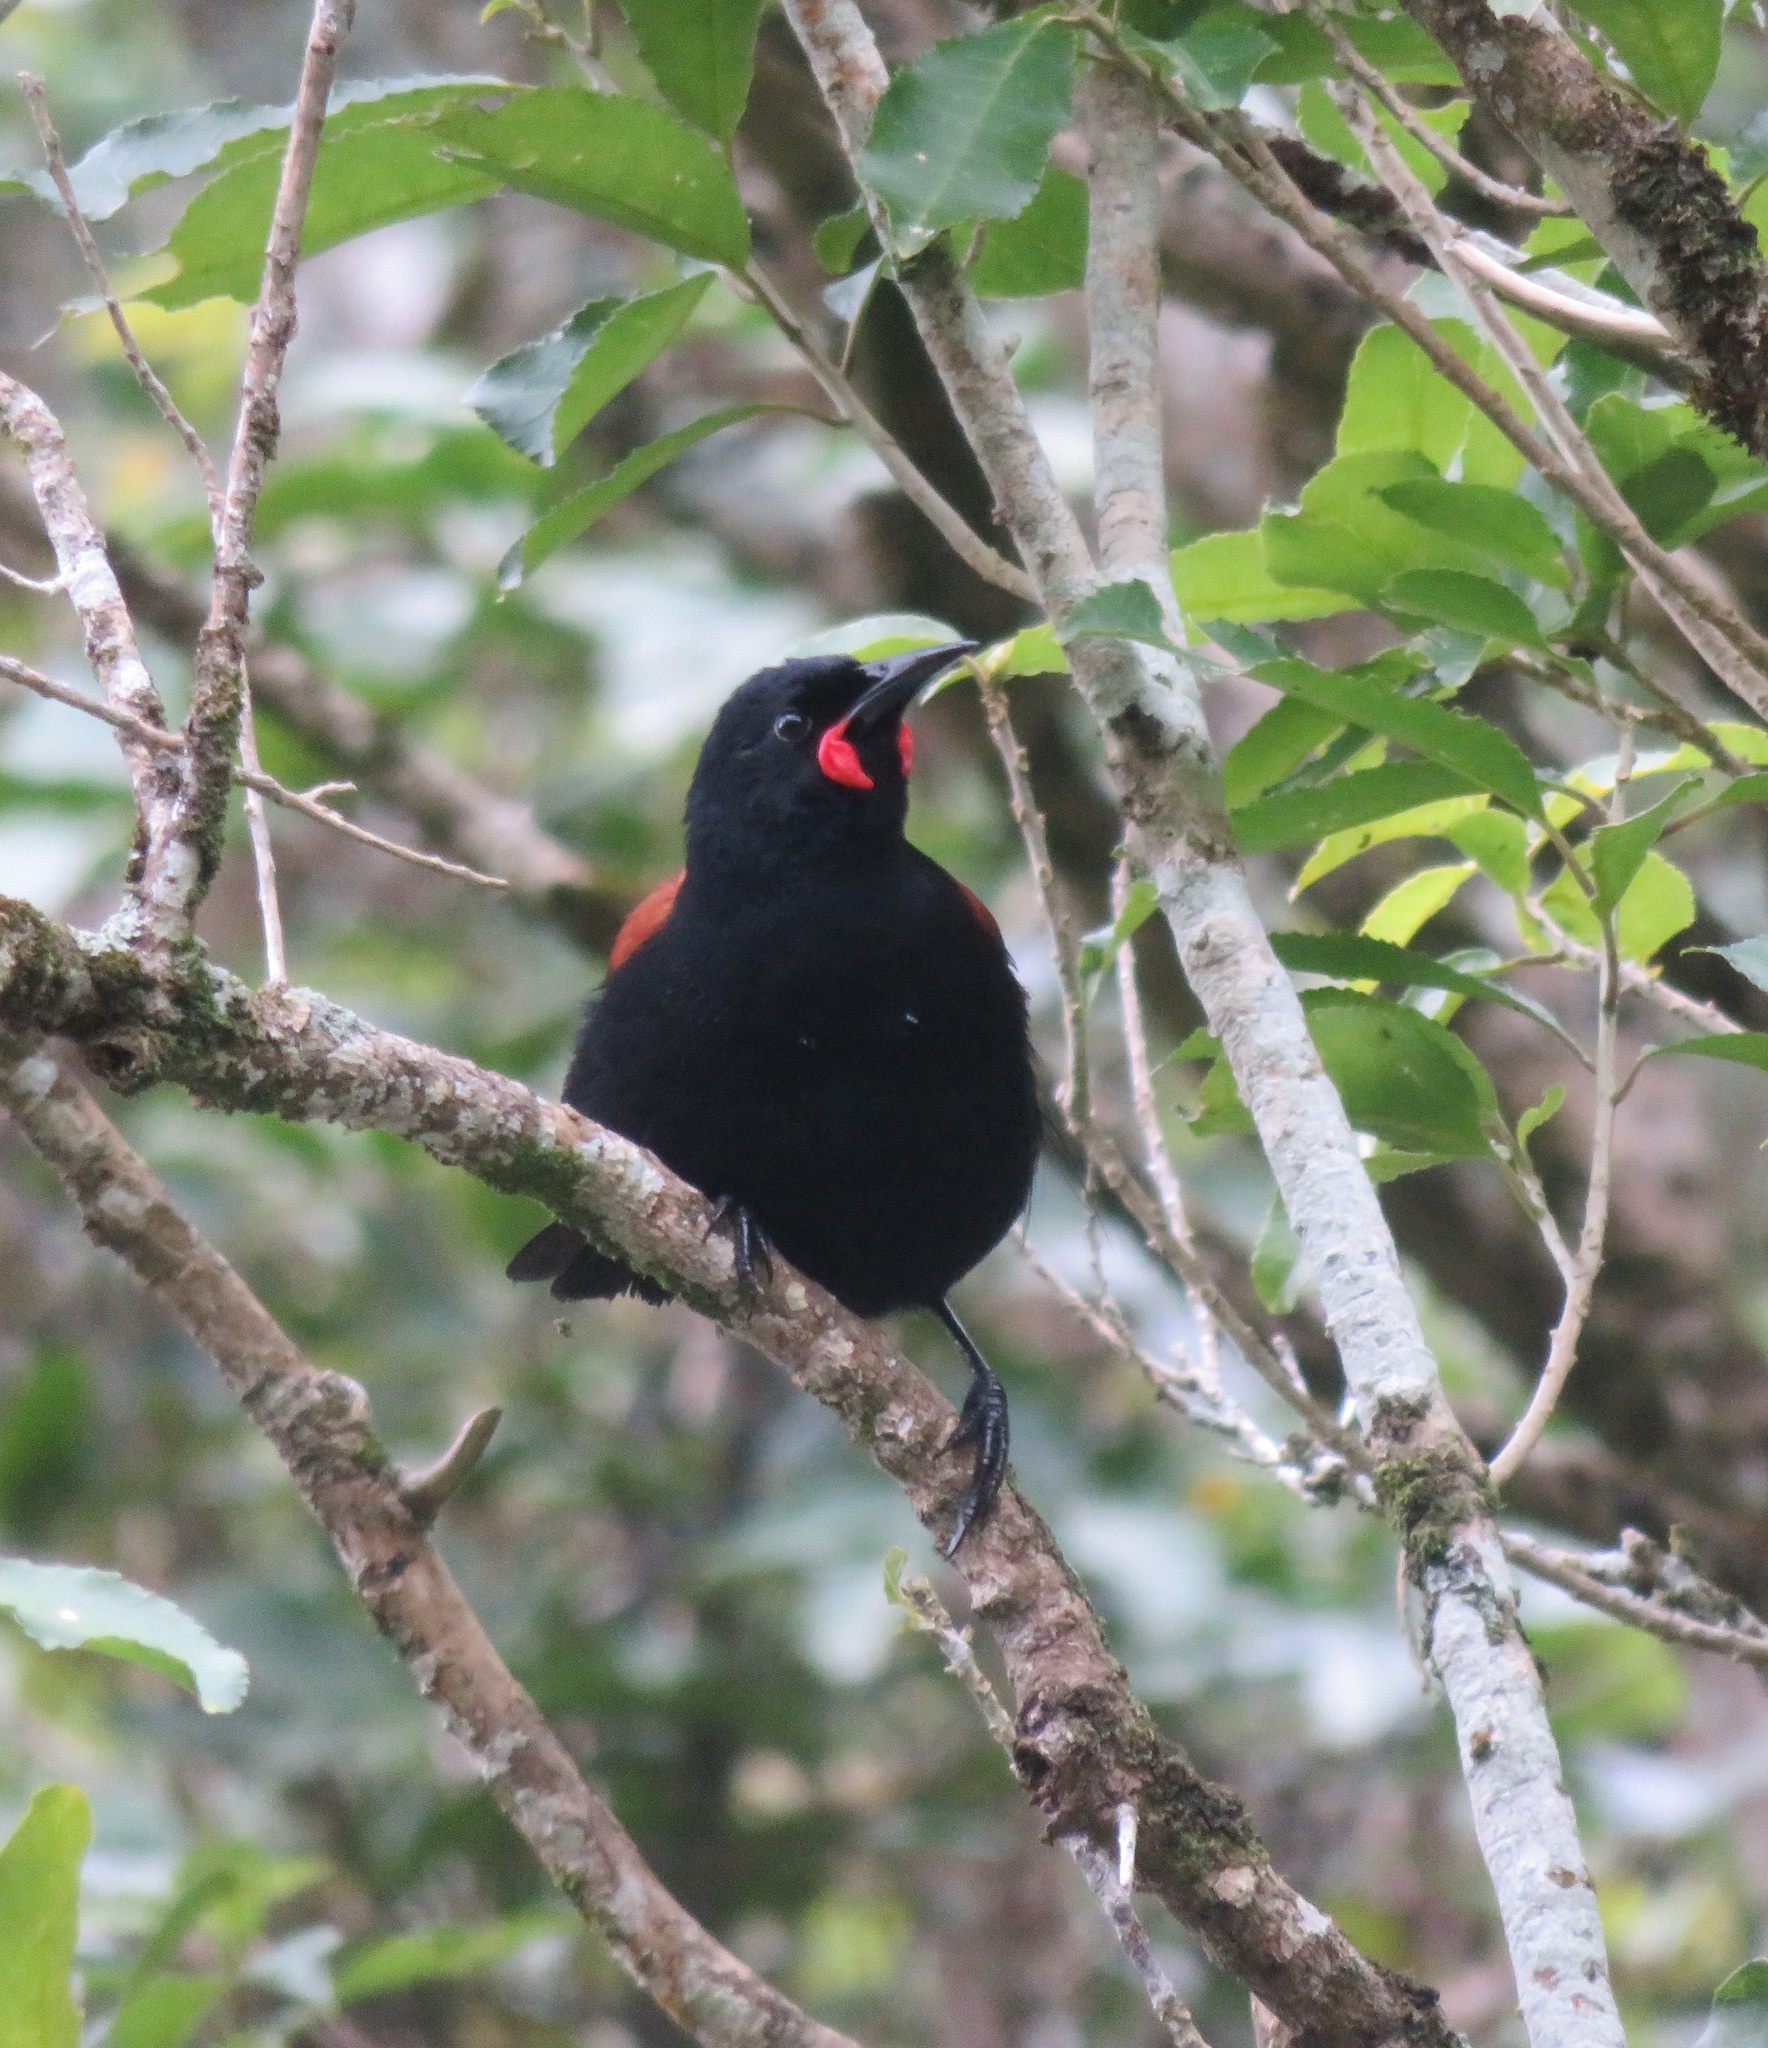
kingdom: Animalia
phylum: Chordata
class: Aves
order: Passeriformes
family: Callaeatidae
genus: Philesturnus
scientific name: Philesturnus carunculatus
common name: South island saddleback
